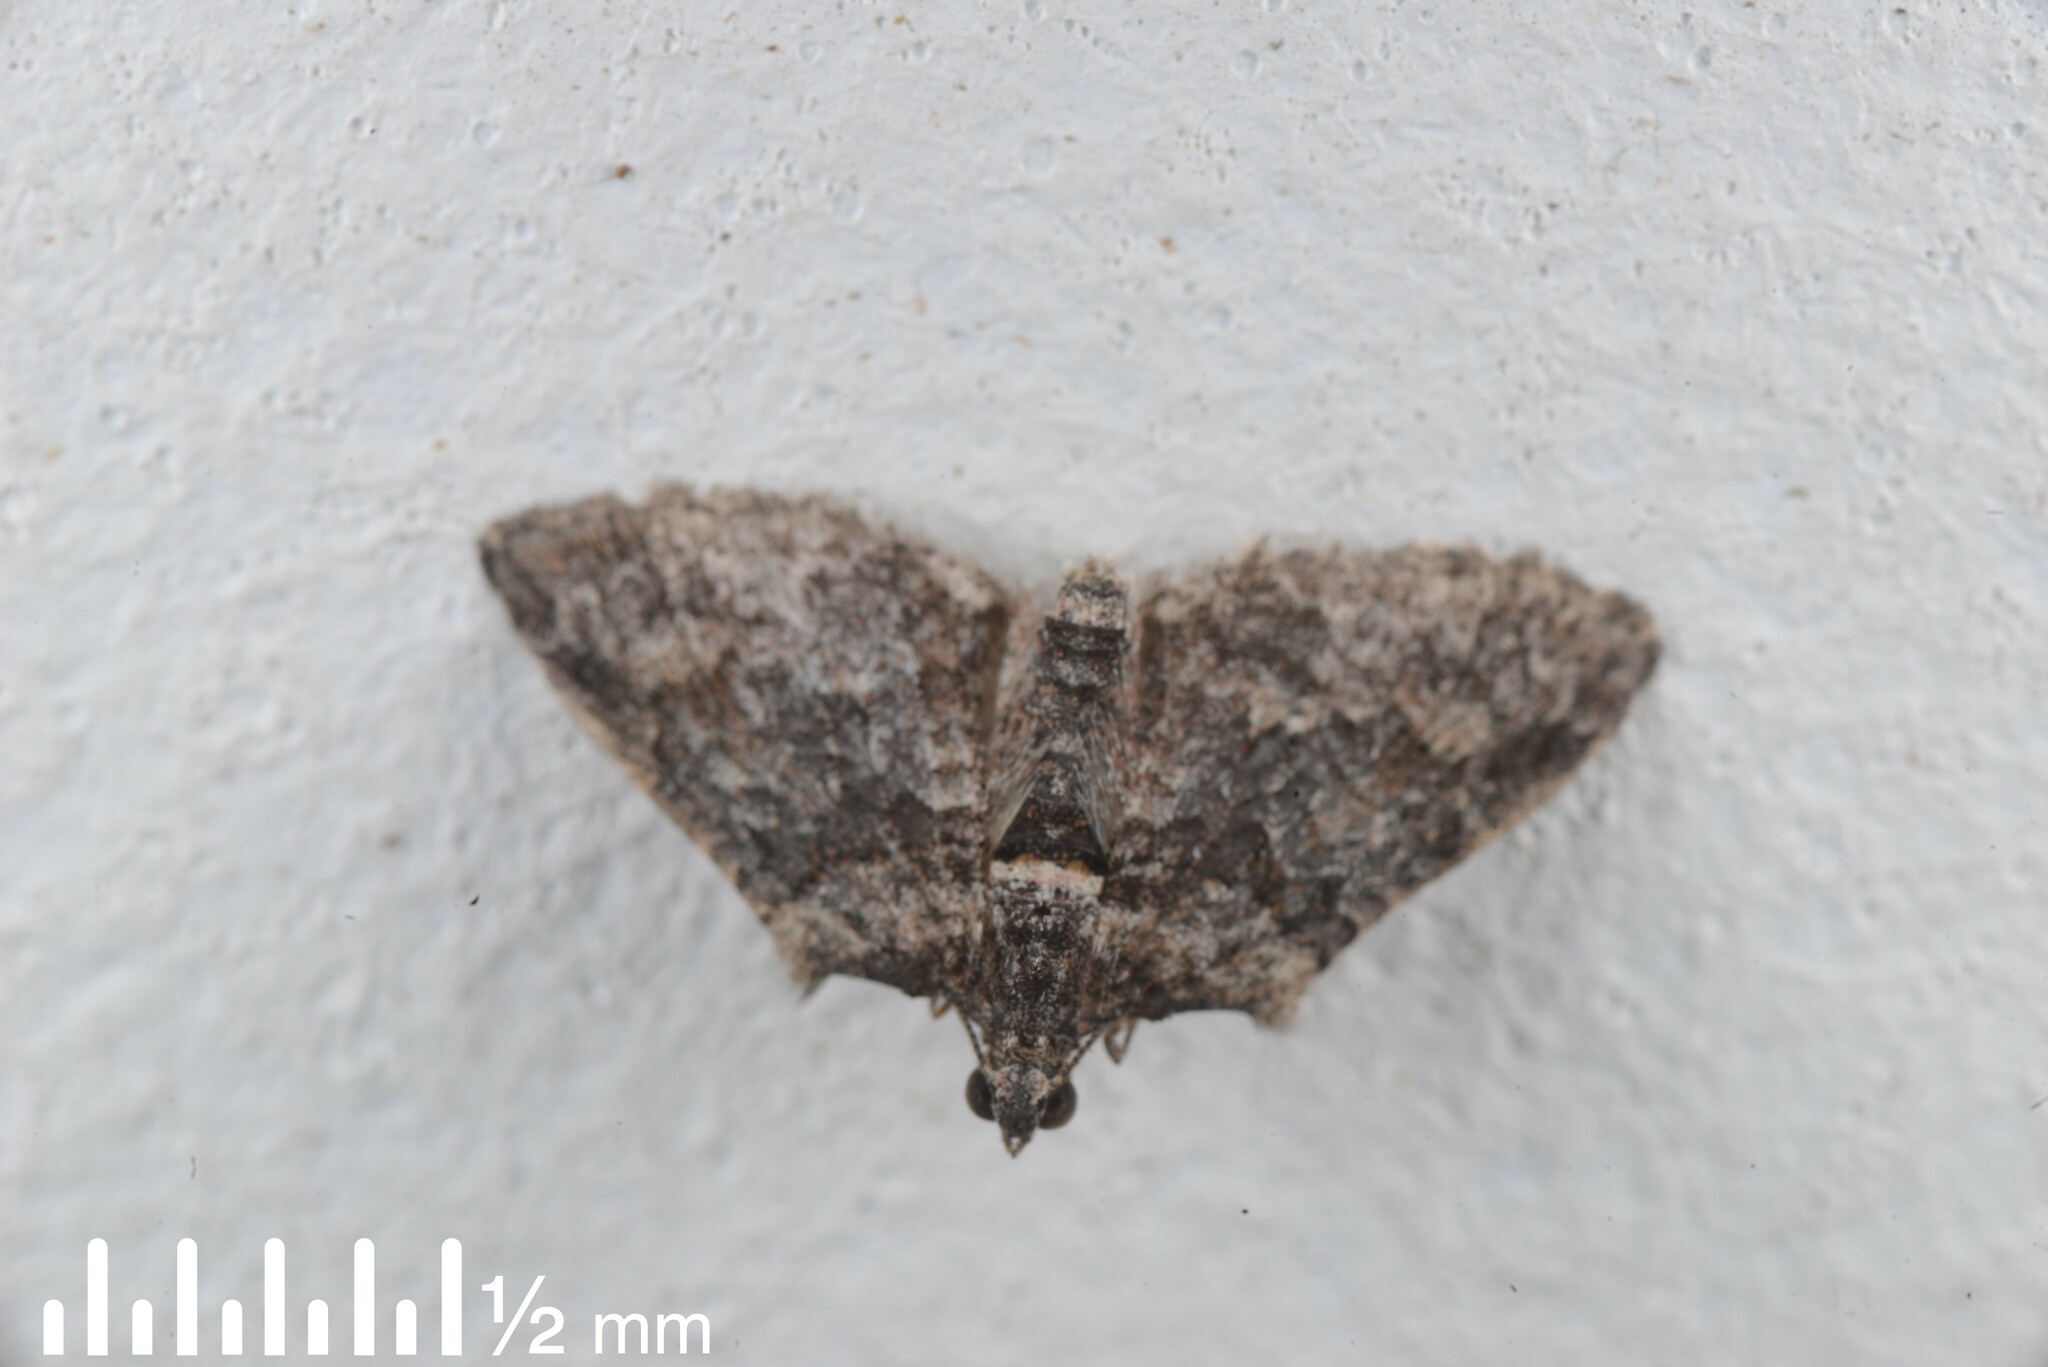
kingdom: Animalia
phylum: Arthropoda
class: Insecta
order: Lepidoptera
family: Geometridae
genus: Phrissogonus
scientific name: Phrissogonus laticostata
